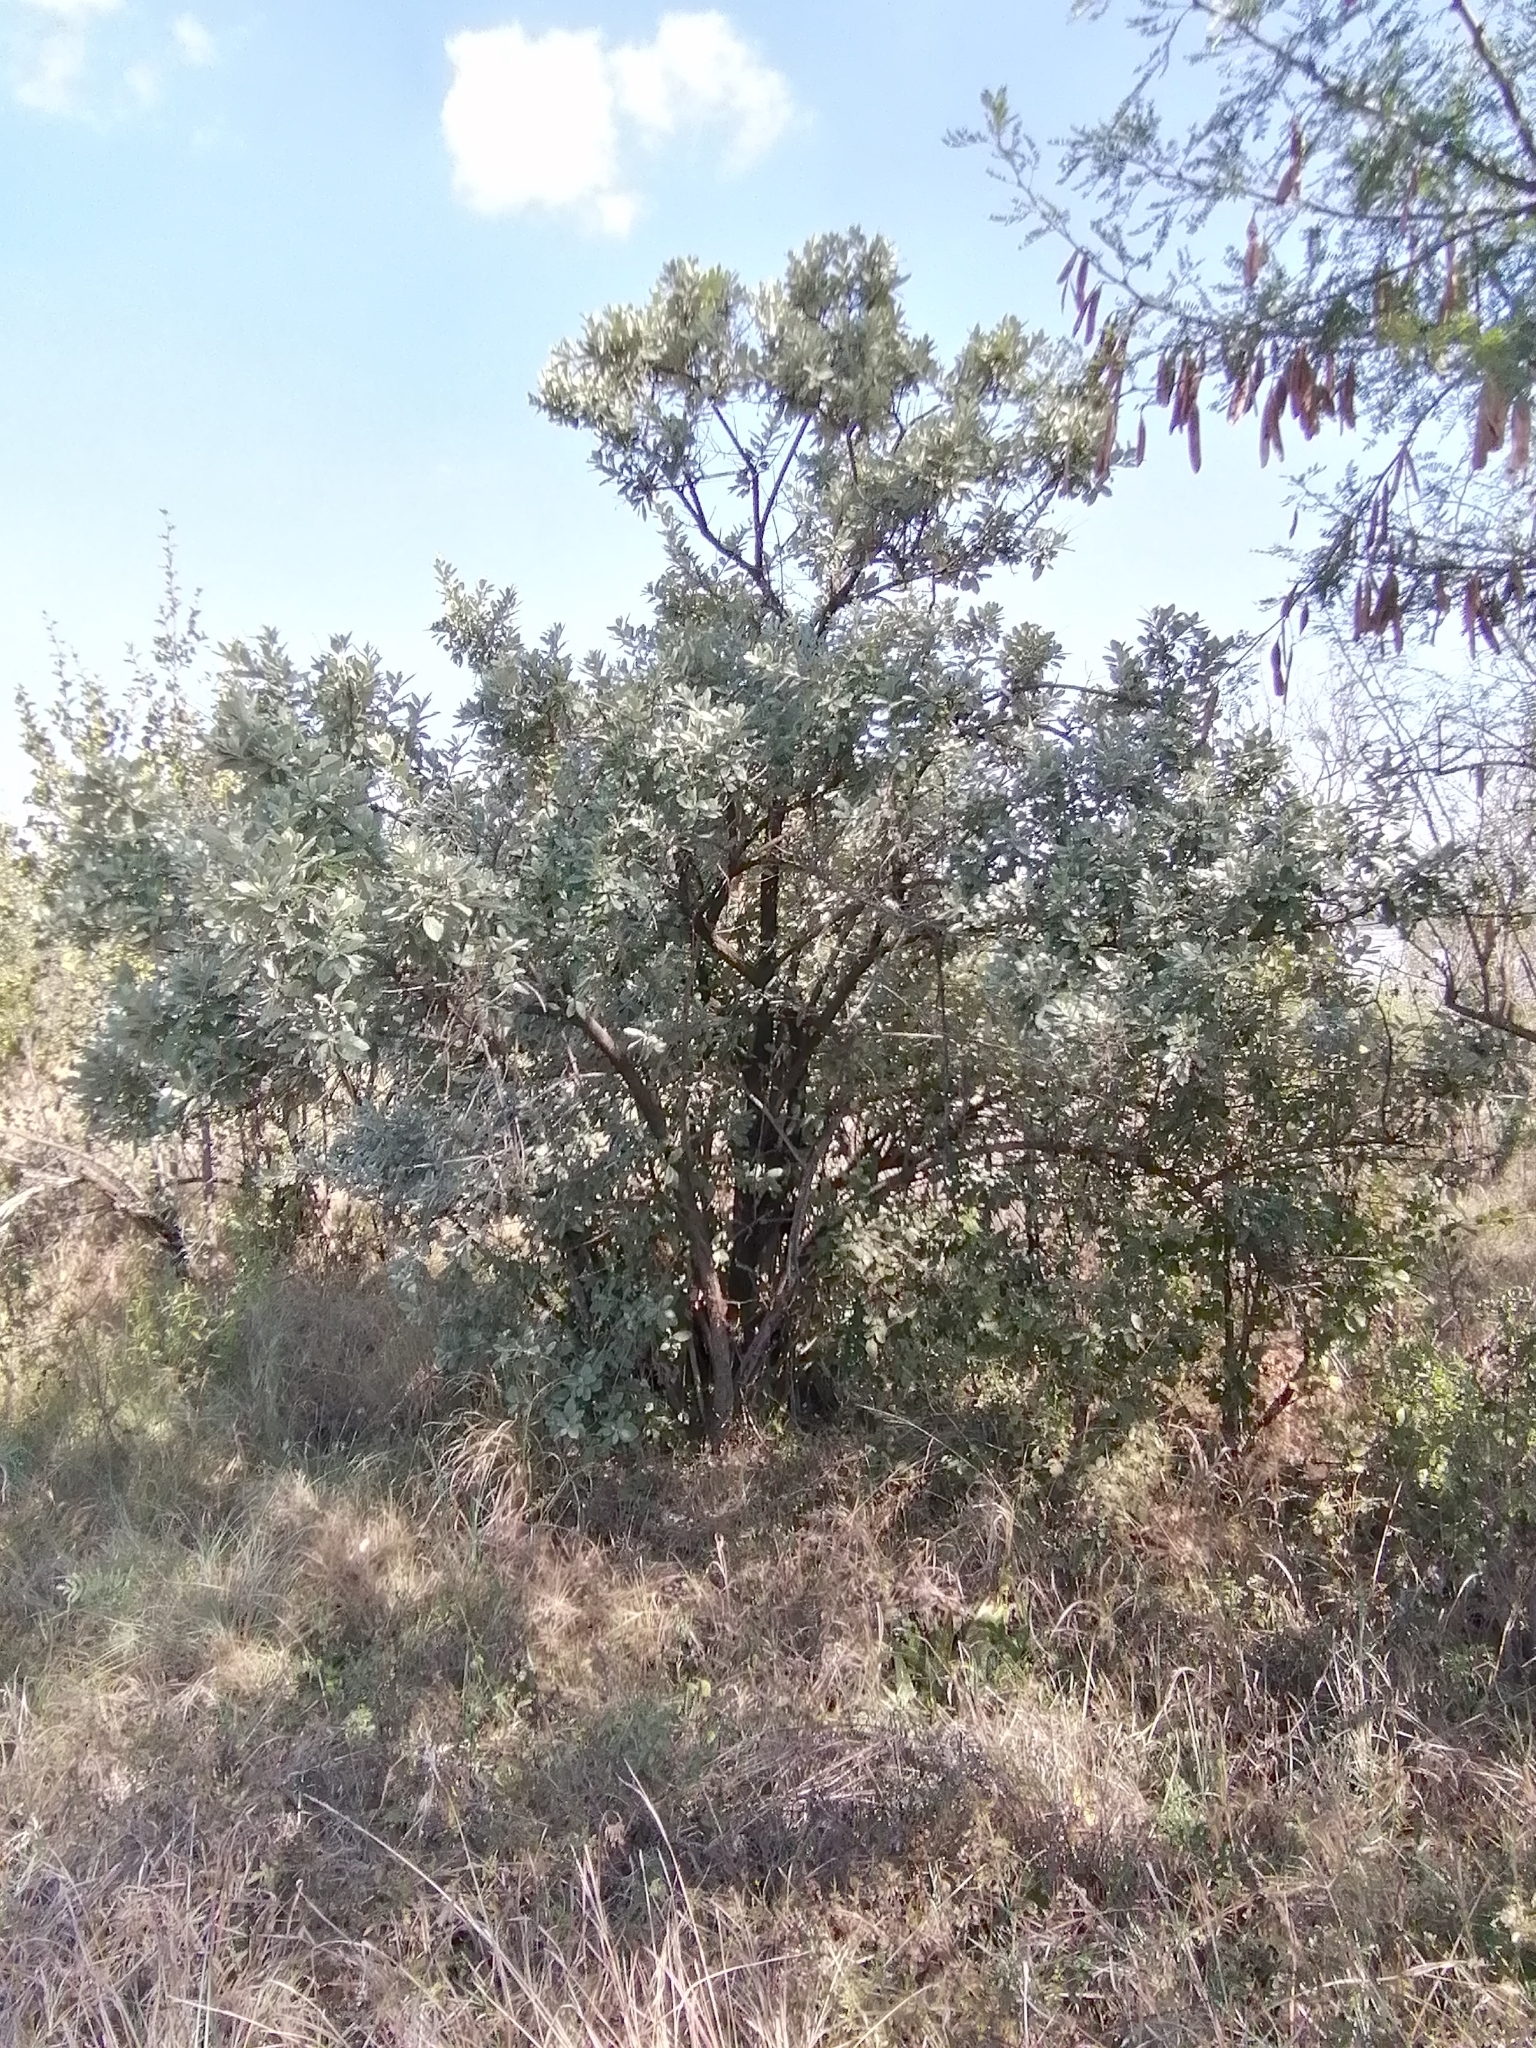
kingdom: Plantae
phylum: Tracheophyta
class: Magnoliopsida
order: Asterales
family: Asteraceae
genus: Brachylaena
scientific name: Brachylaena discolor
